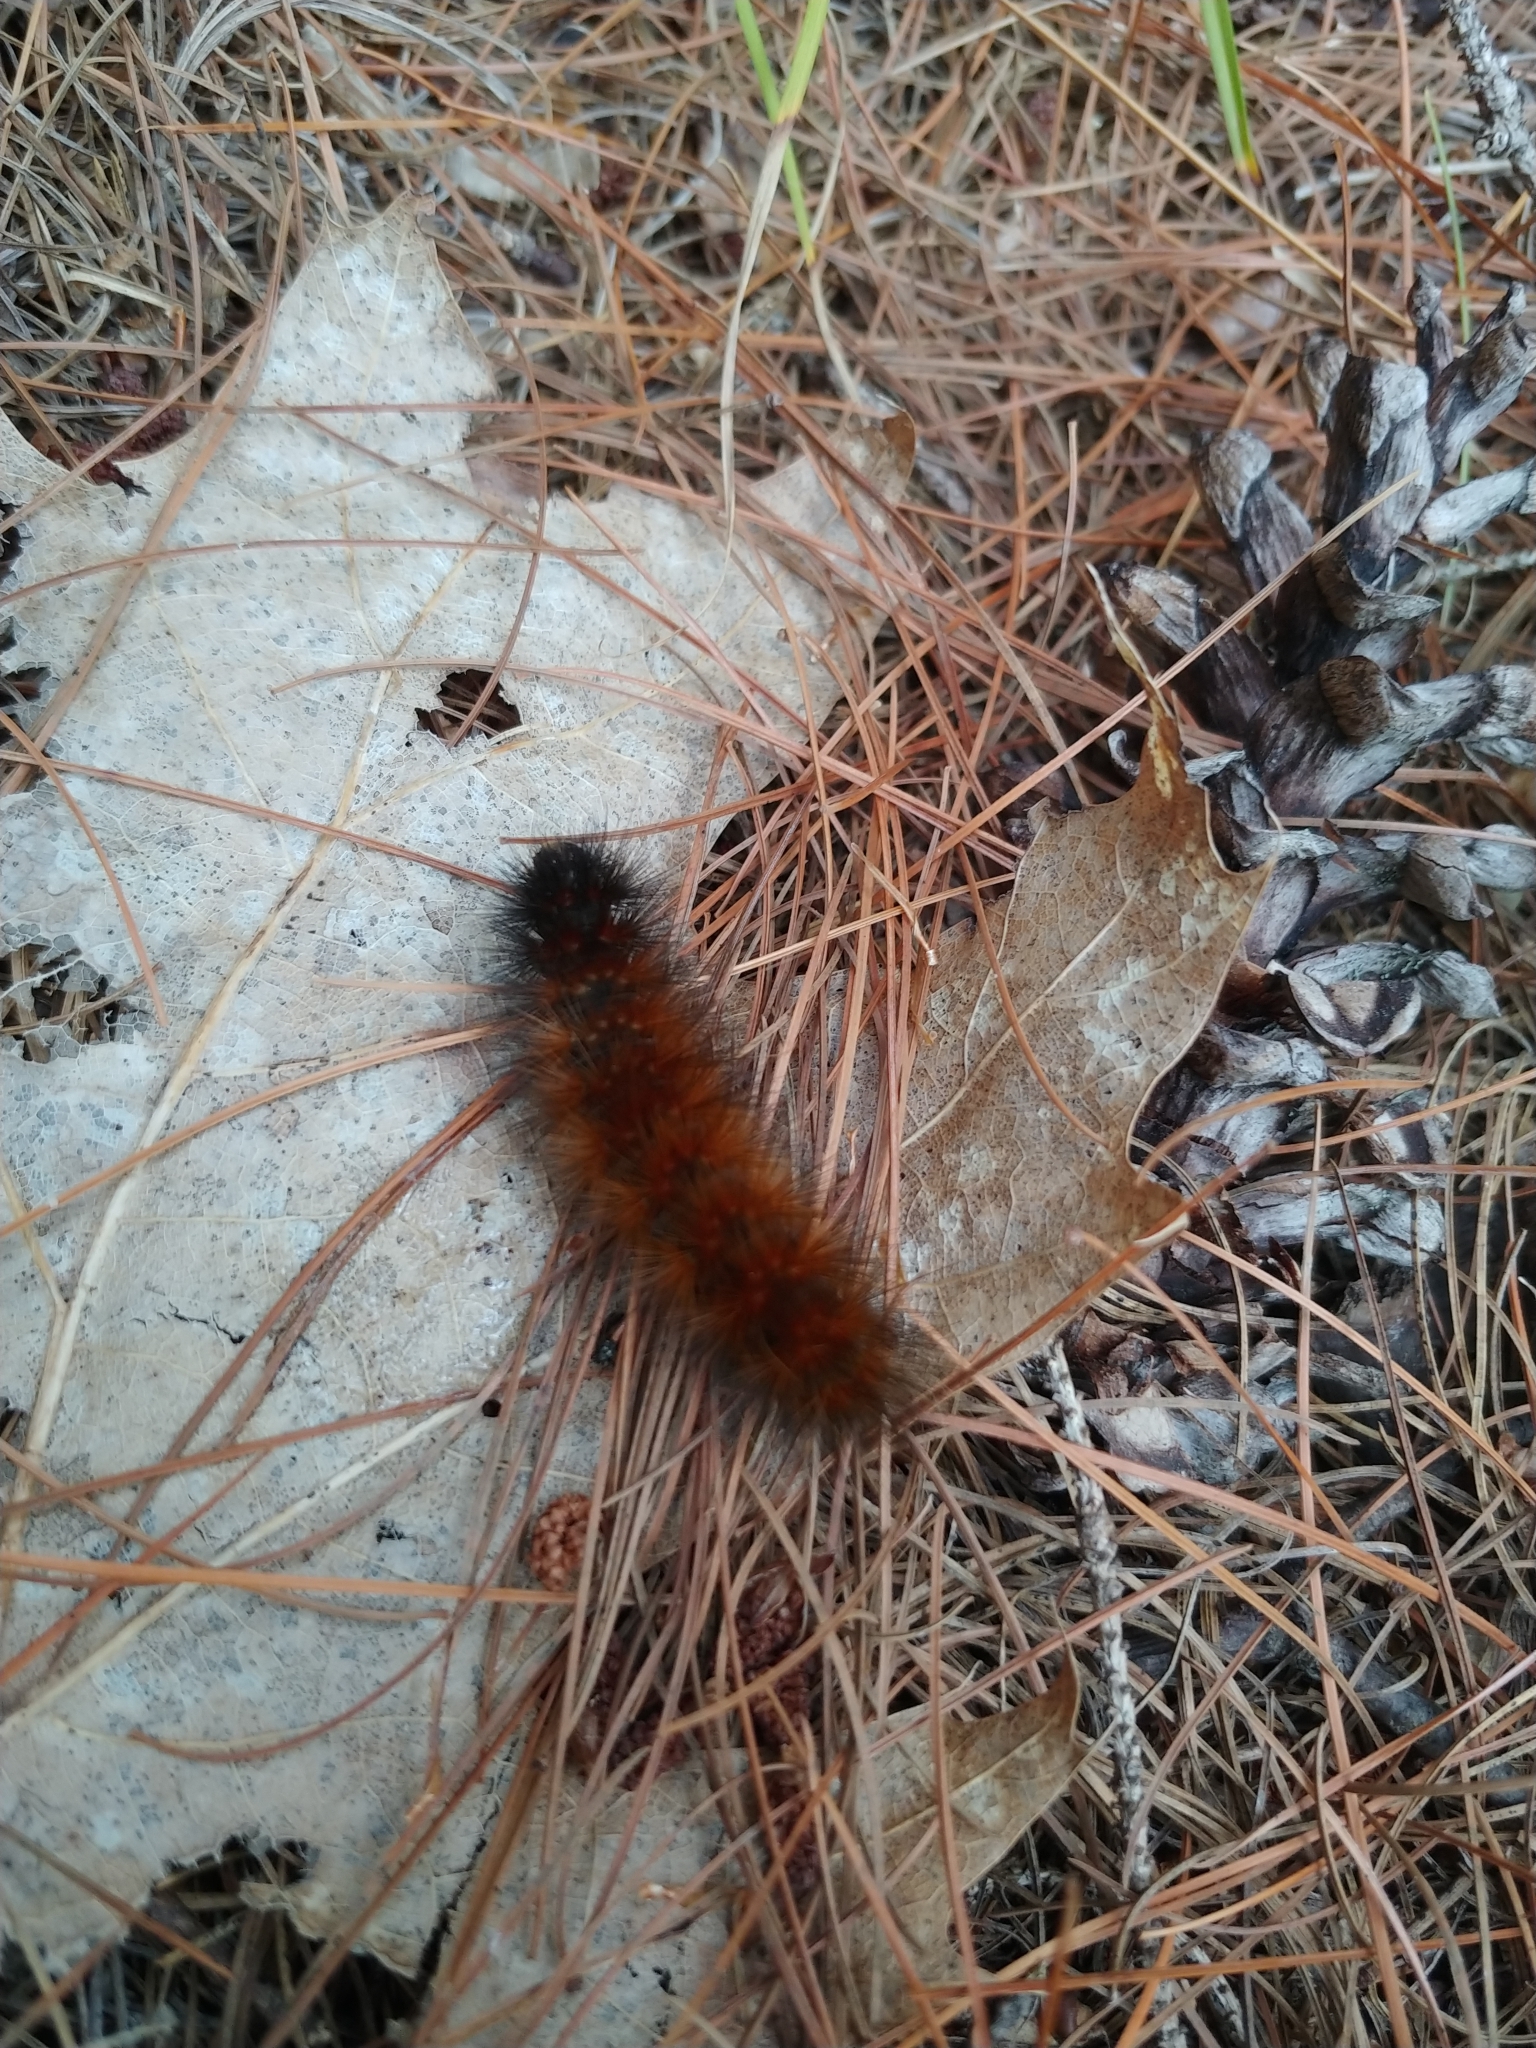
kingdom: Animalia
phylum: Arthropoda
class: Insecta
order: Lepidoptera
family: Erebidae
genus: Pyrrharctia
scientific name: Pyrrharctia isabella
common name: Isabella tiger moth
